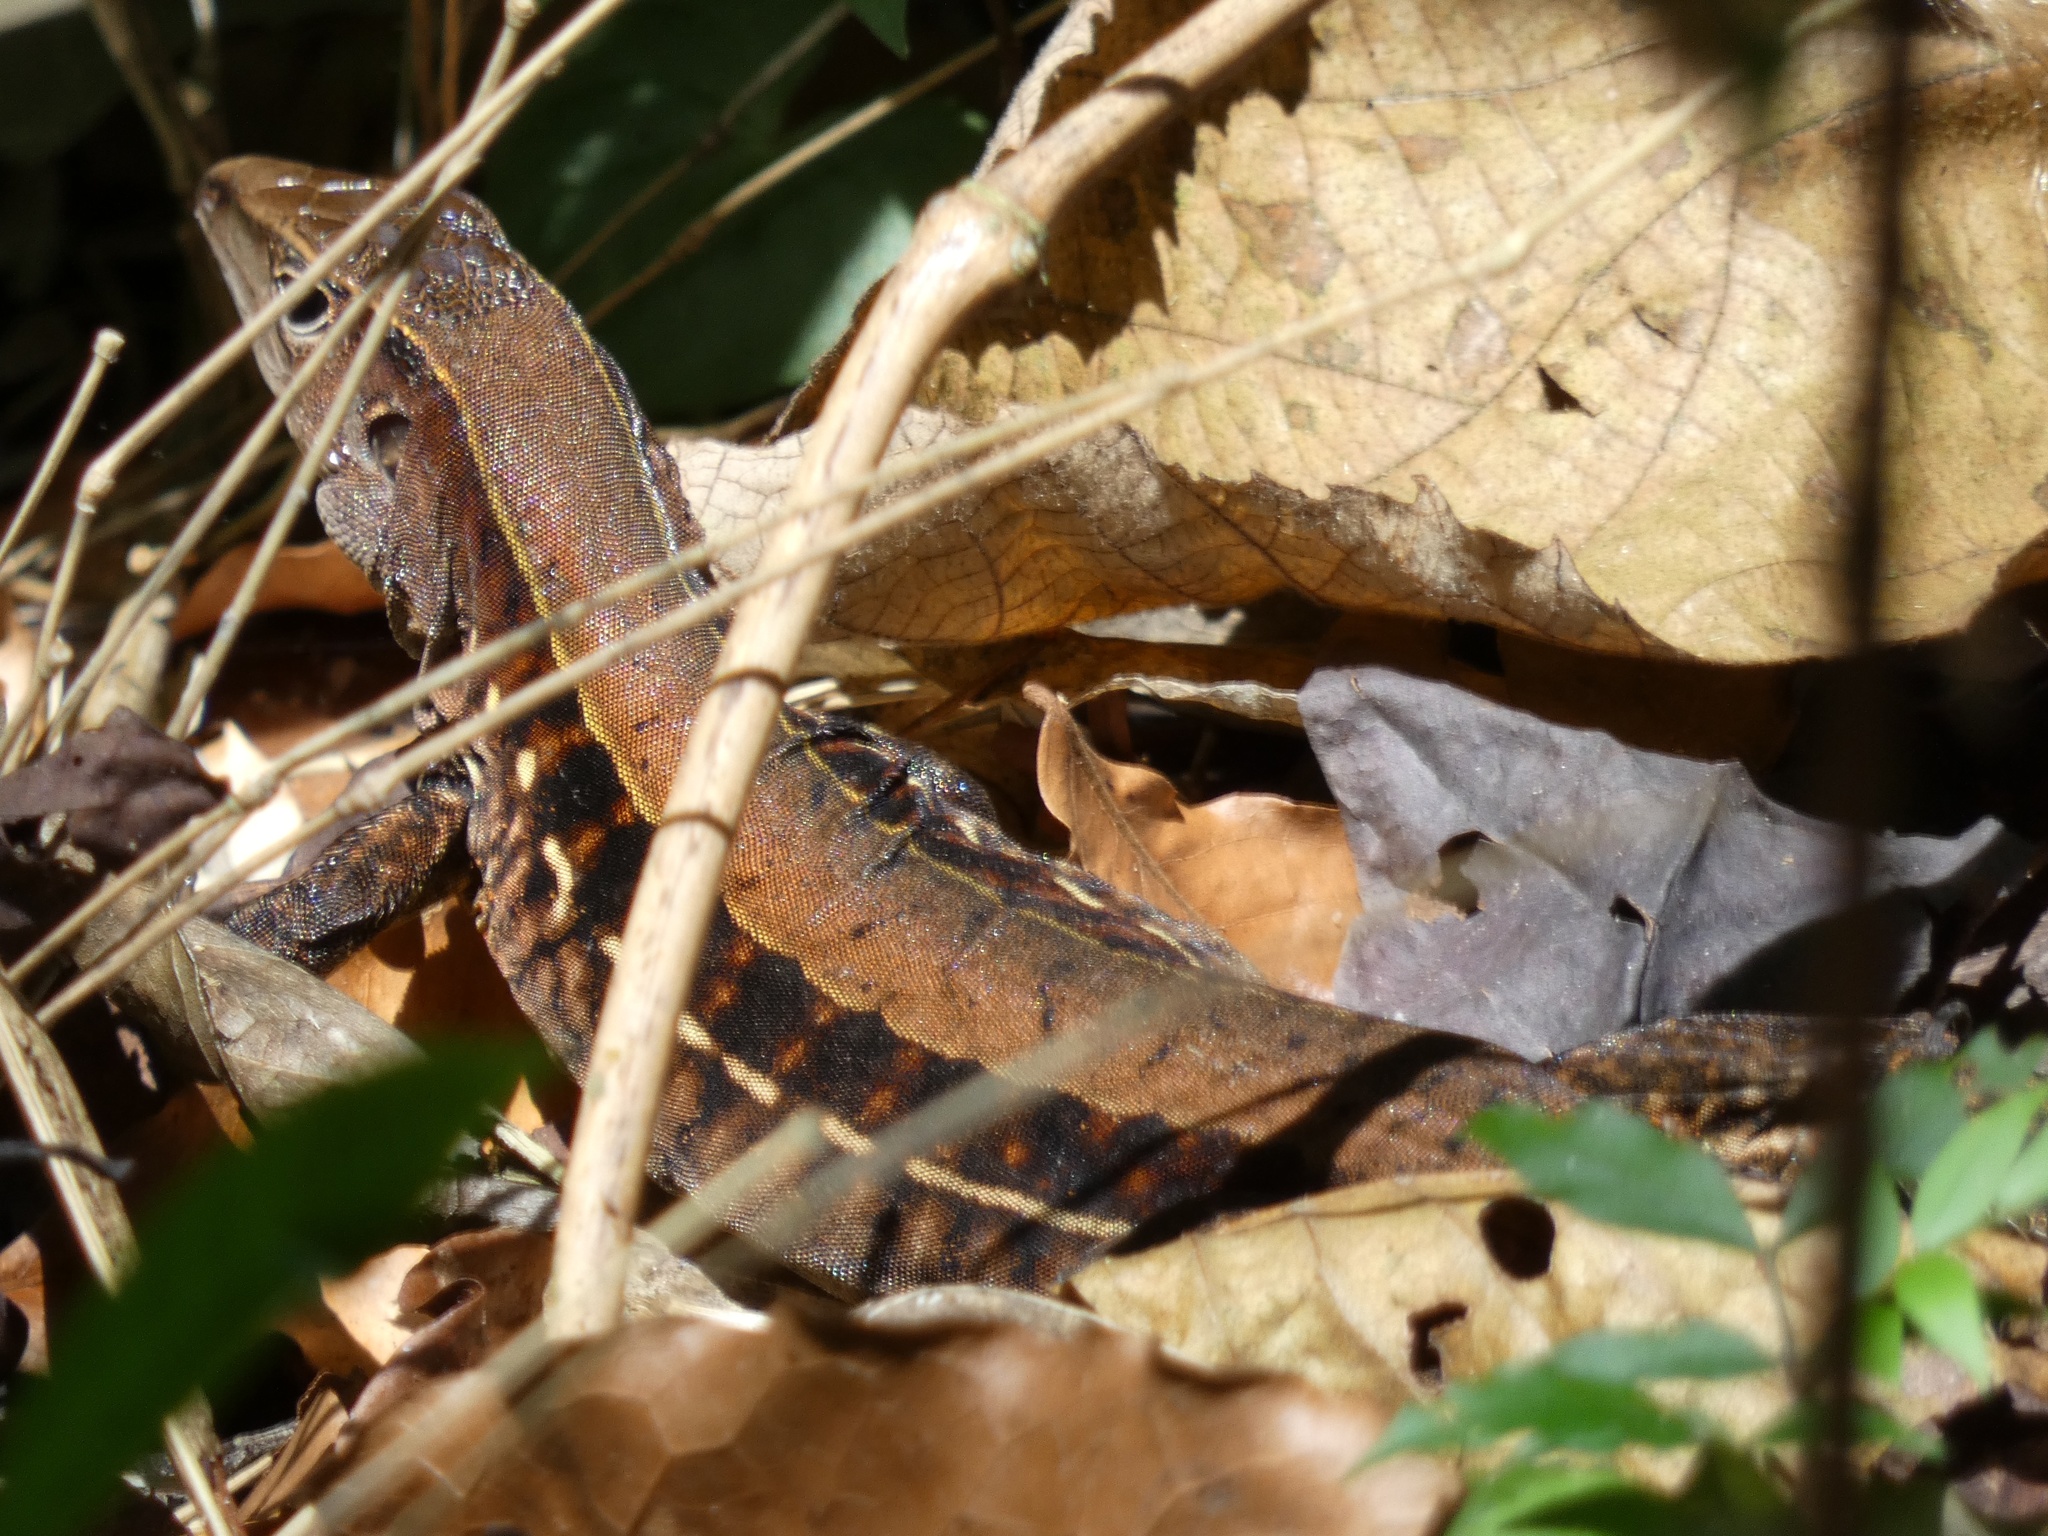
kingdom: Animalia
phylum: Chordata
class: Squamata
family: Teiidae
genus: Holcosus
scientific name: Holcosus leptophrys
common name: Delicate ameiva
